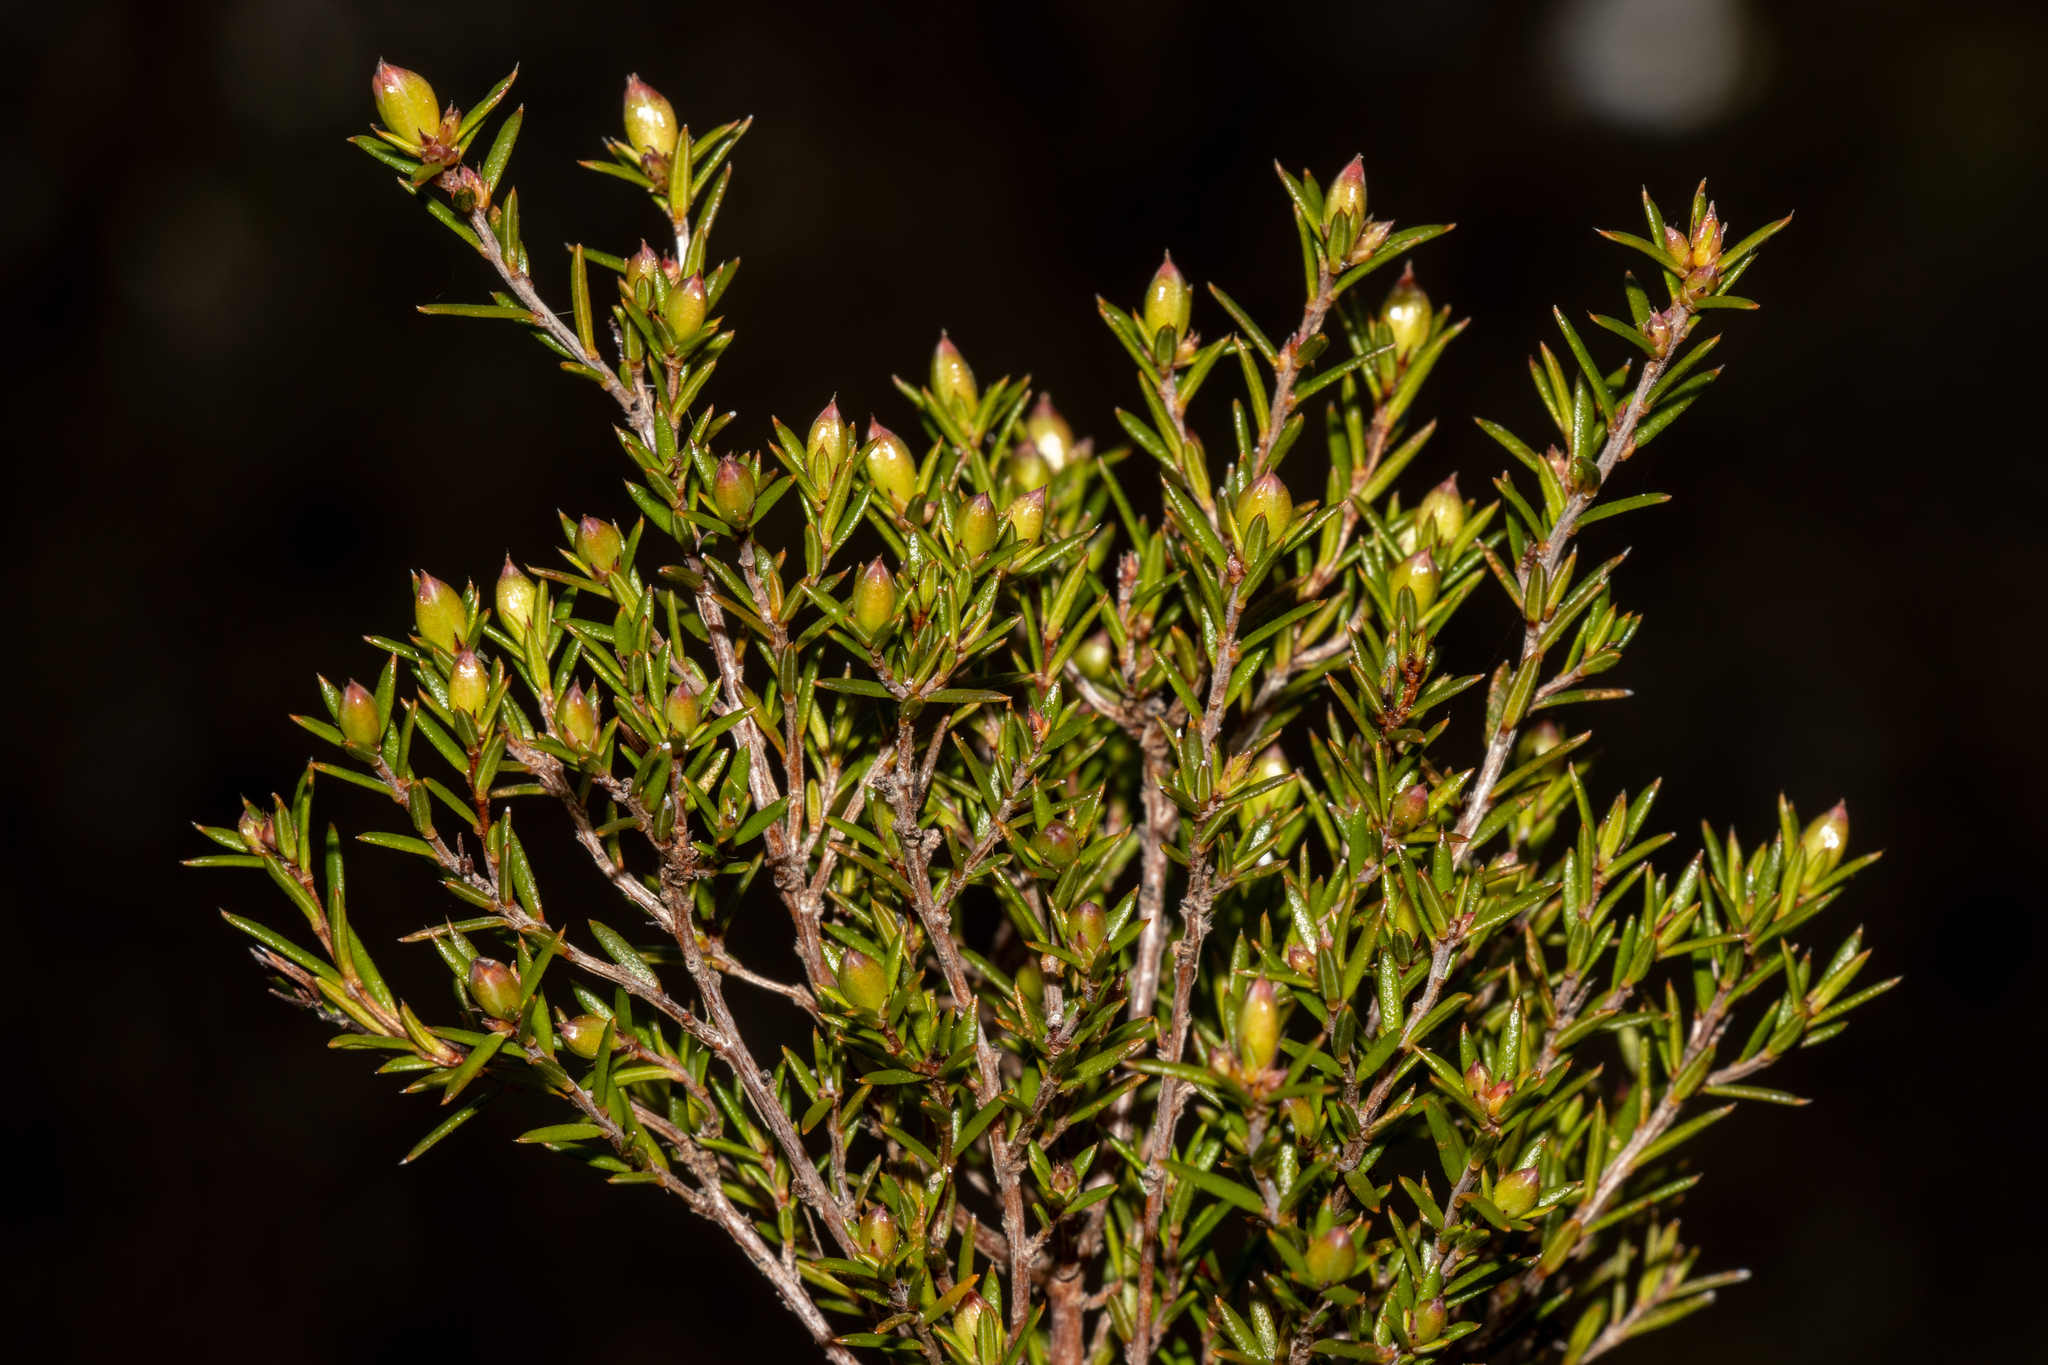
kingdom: Plantae
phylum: Tracheophyta
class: Magnoliopsida
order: Dilleniales
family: Dilleniaceae
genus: Hibbertia
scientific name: Hibbertia exutiacies
